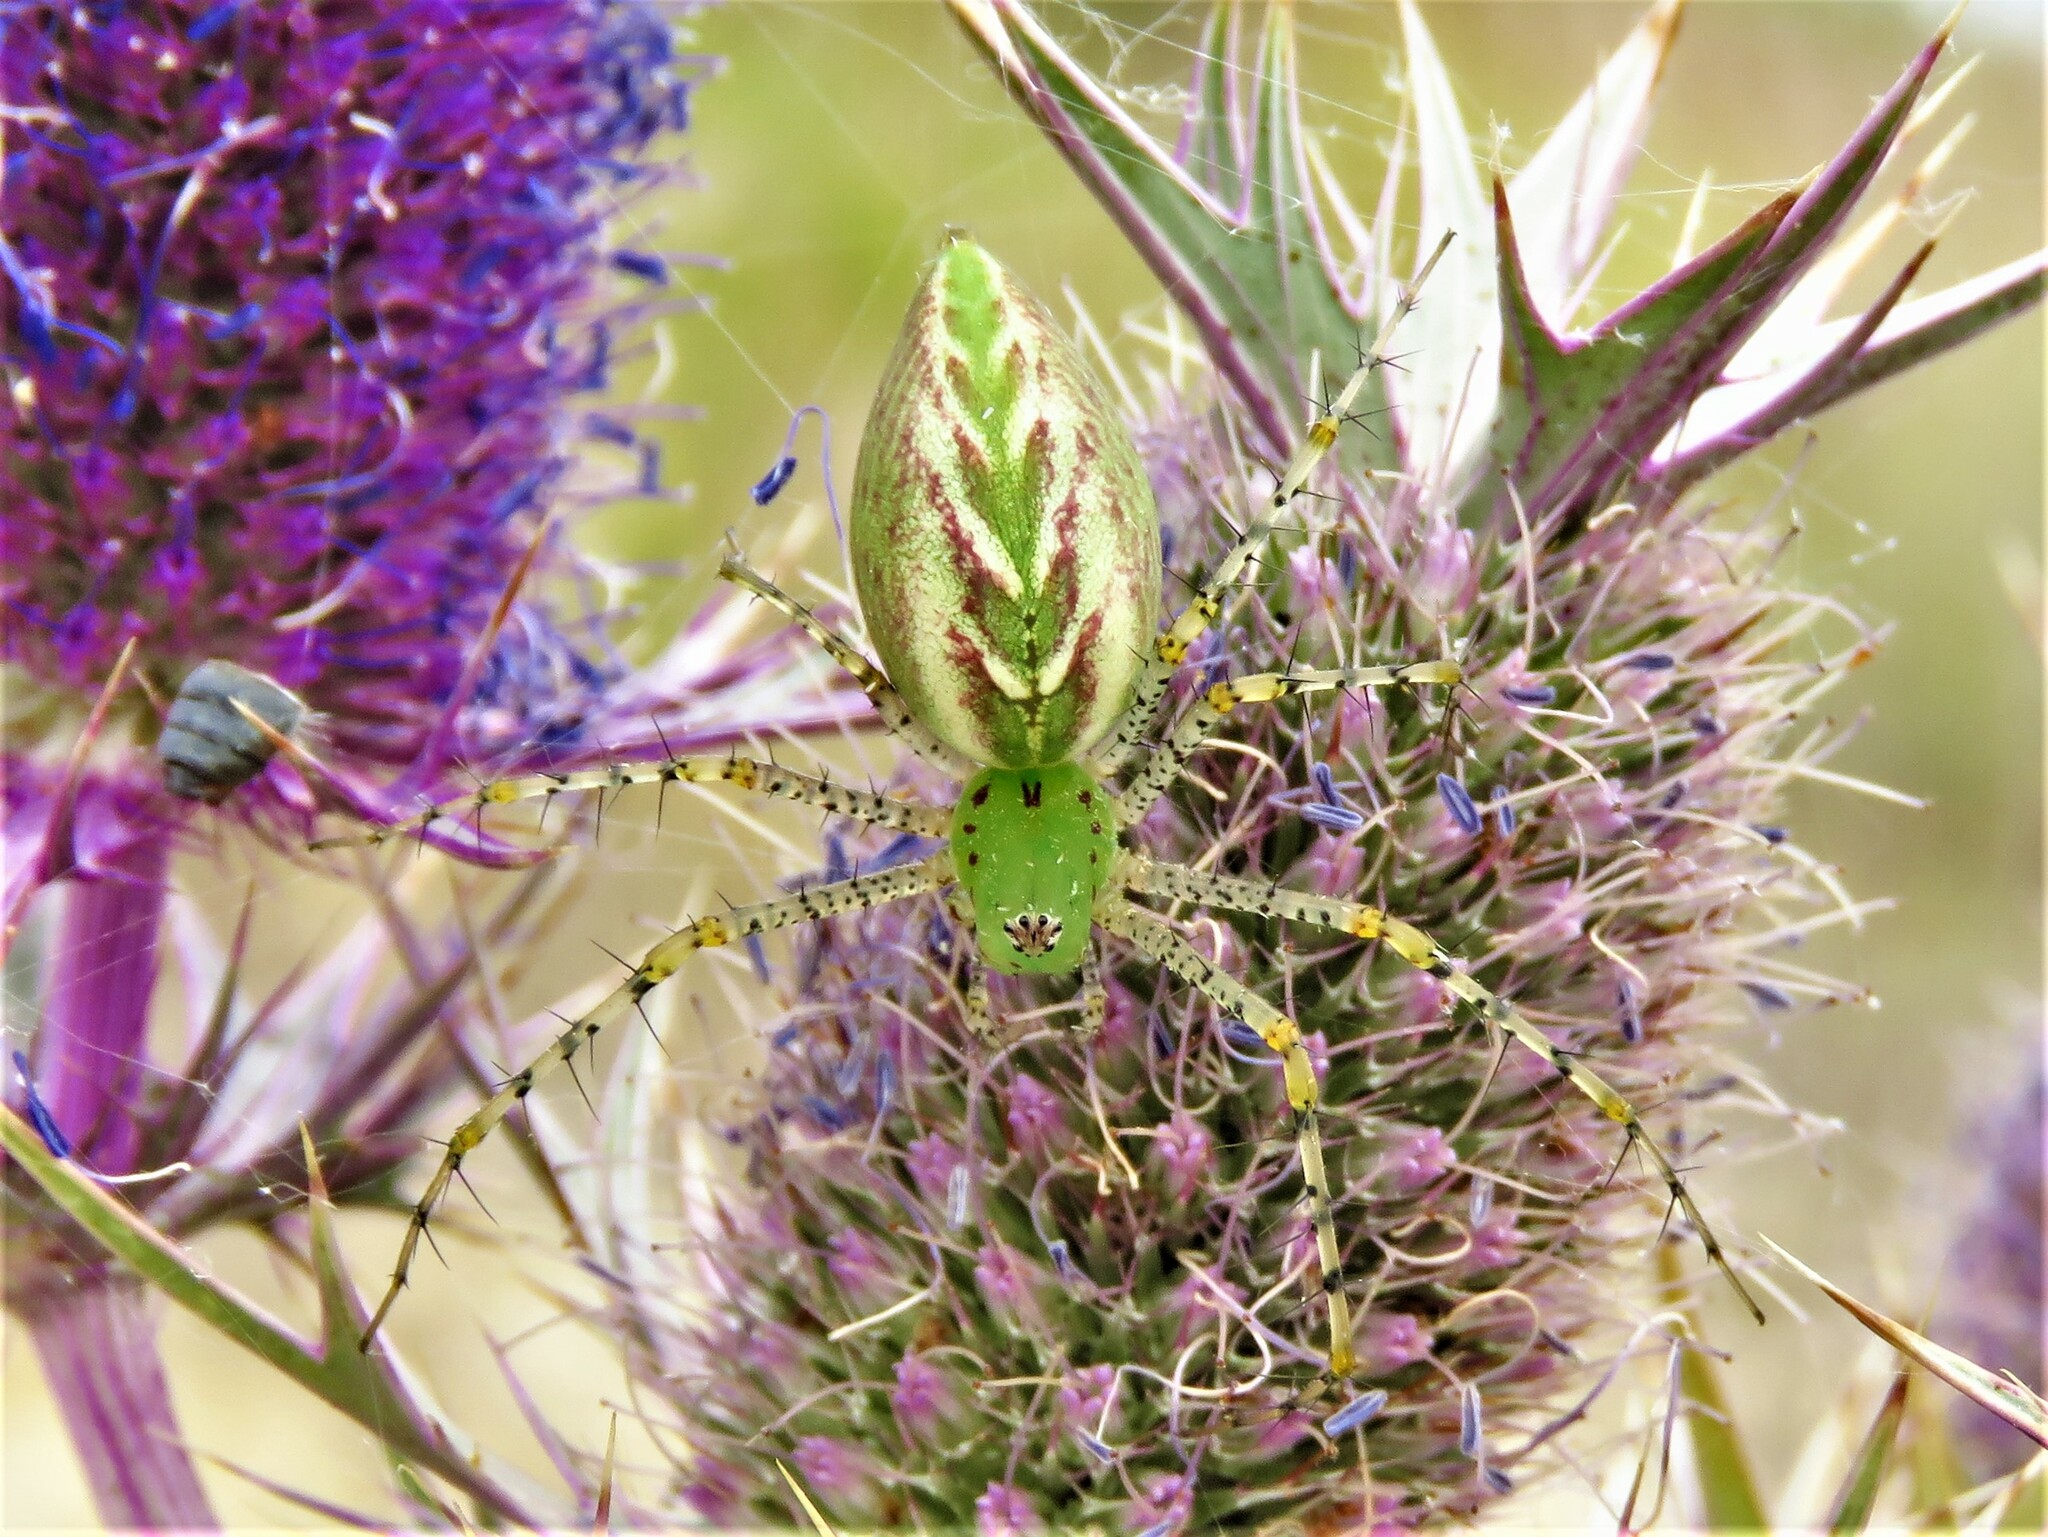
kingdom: Animalia
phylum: Arthropoda
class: Arachnida
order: Araneae
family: Oxyopidae
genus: Peucetia
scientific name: Peucetia viridans
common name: Lynx spiders
